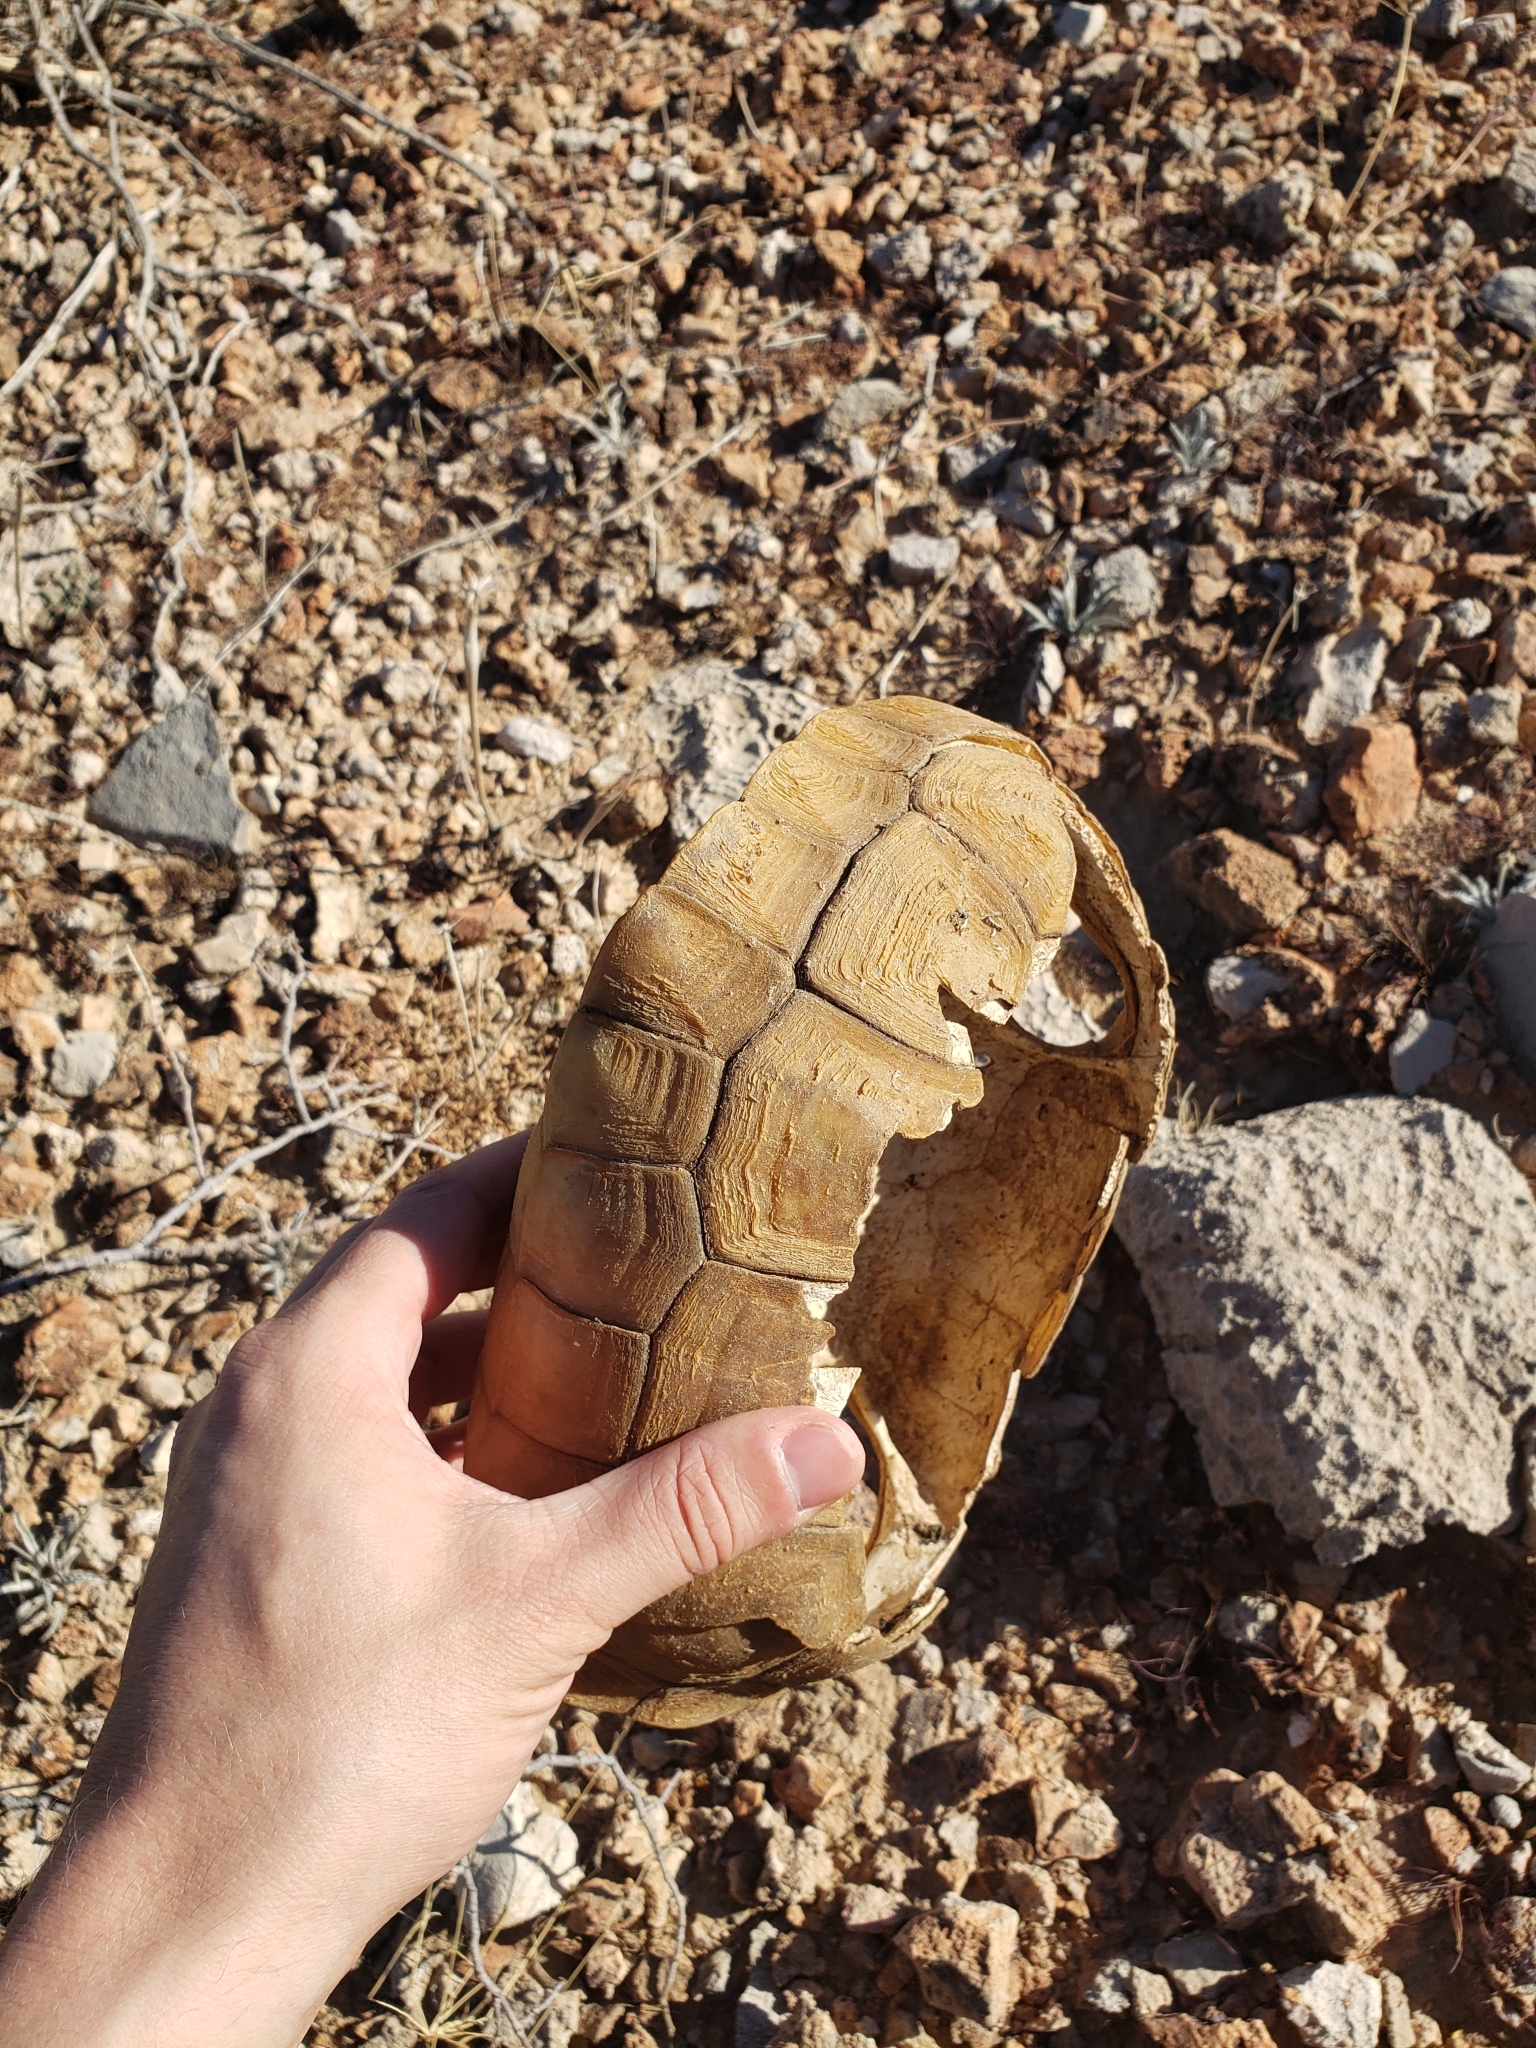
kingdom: Animalia
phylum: Chordata
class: Testudines
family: Testudinidae
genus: Gopherus
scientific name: Gopherus agassizii
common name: Mojave desert tortoise
